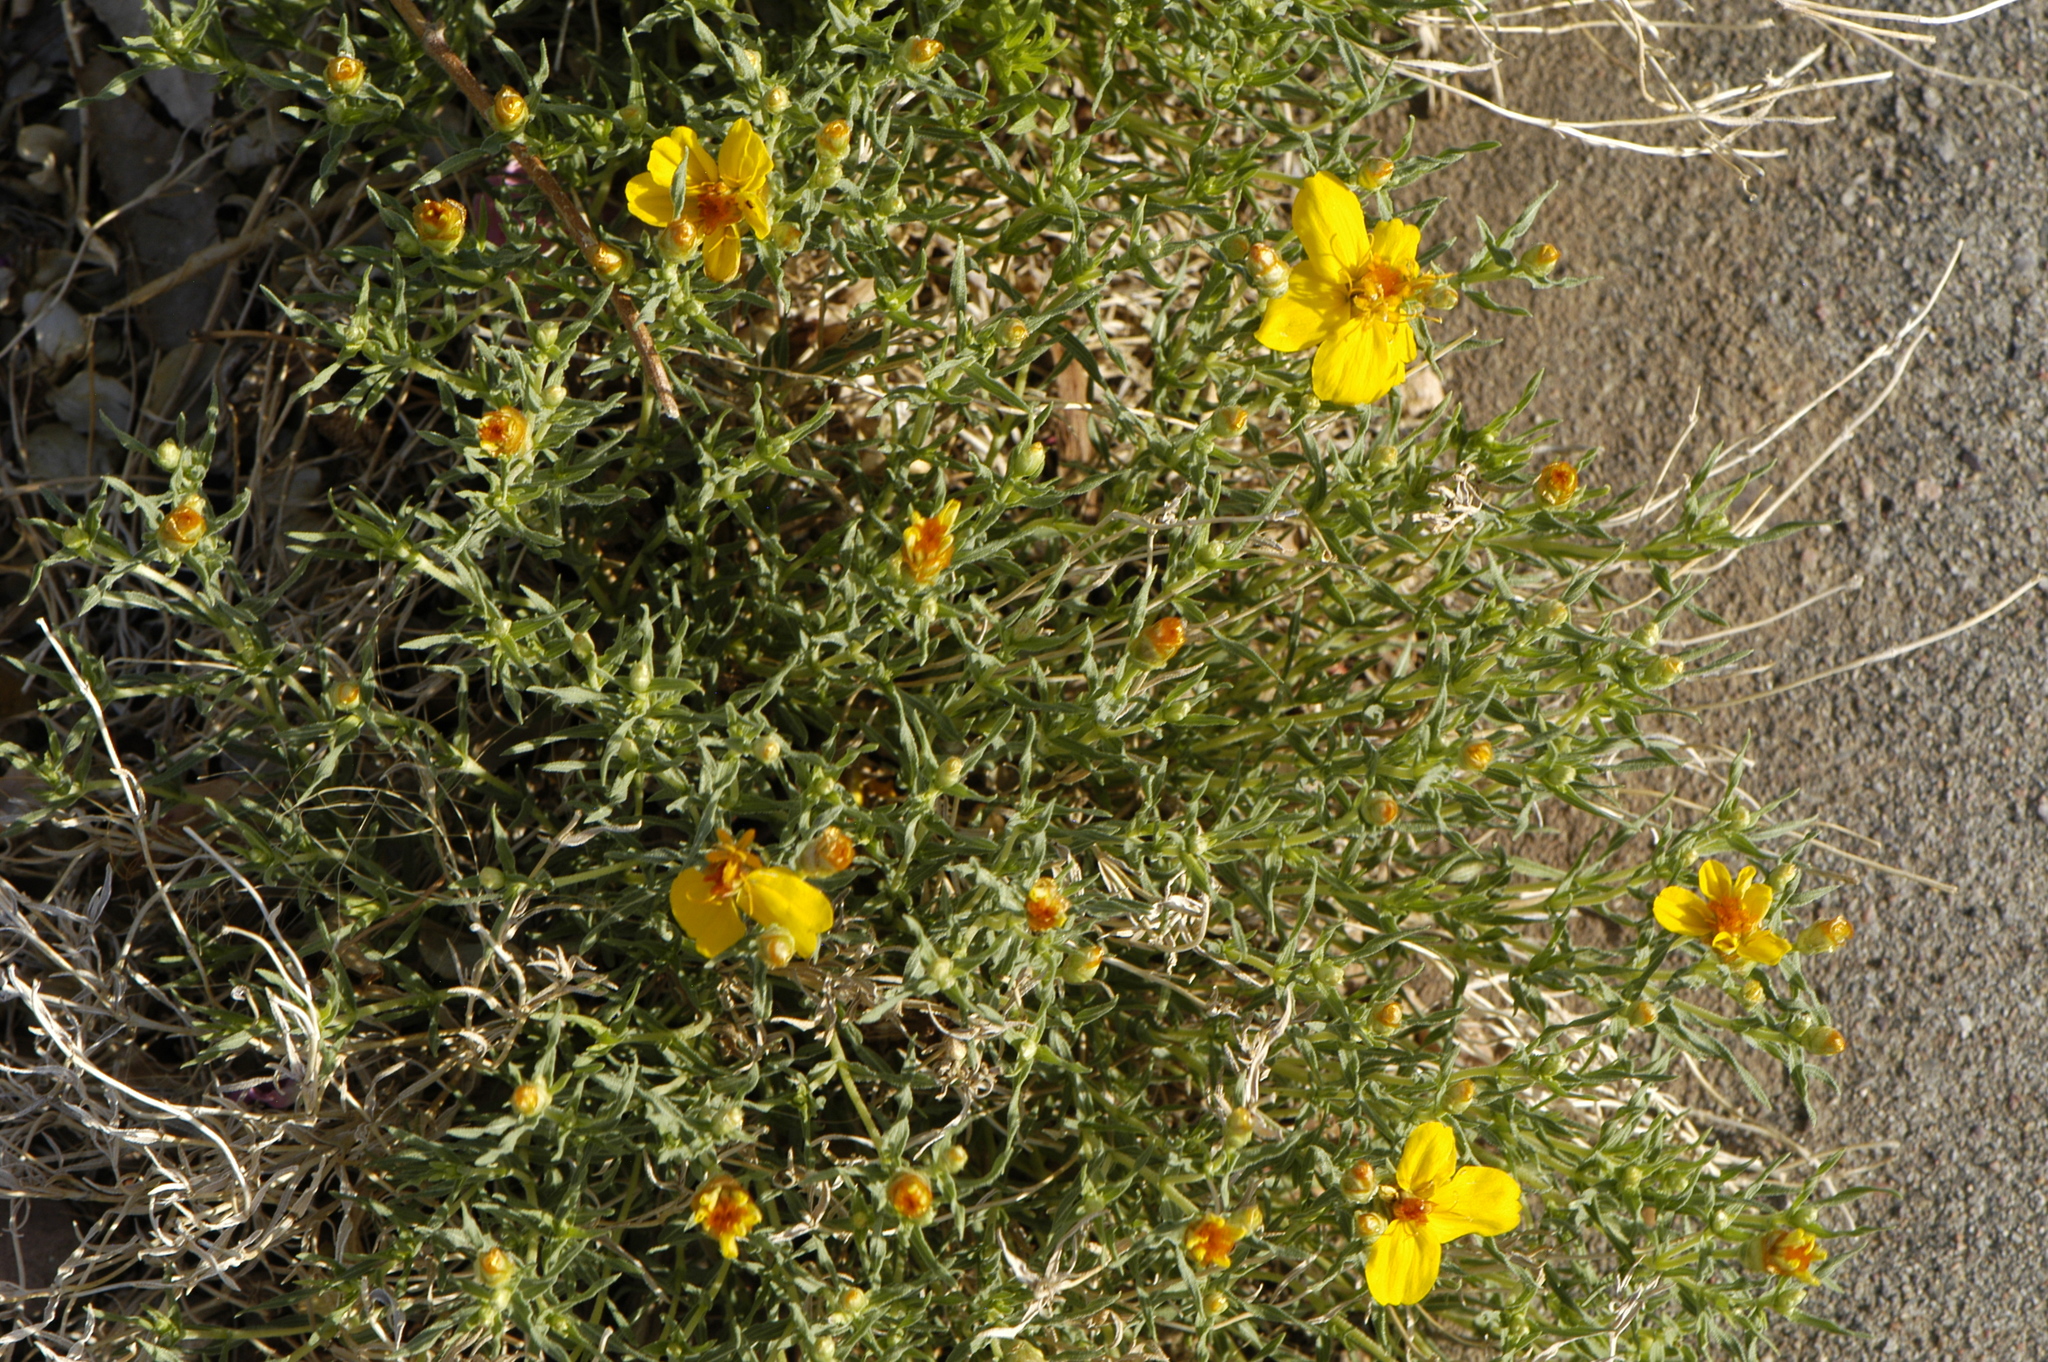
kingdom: Plantae
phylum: Tracheophyta
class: Magnoliopsida
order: Asterales
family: Asteraceae
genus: Zinnia
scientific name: Zinnia grandiflora
